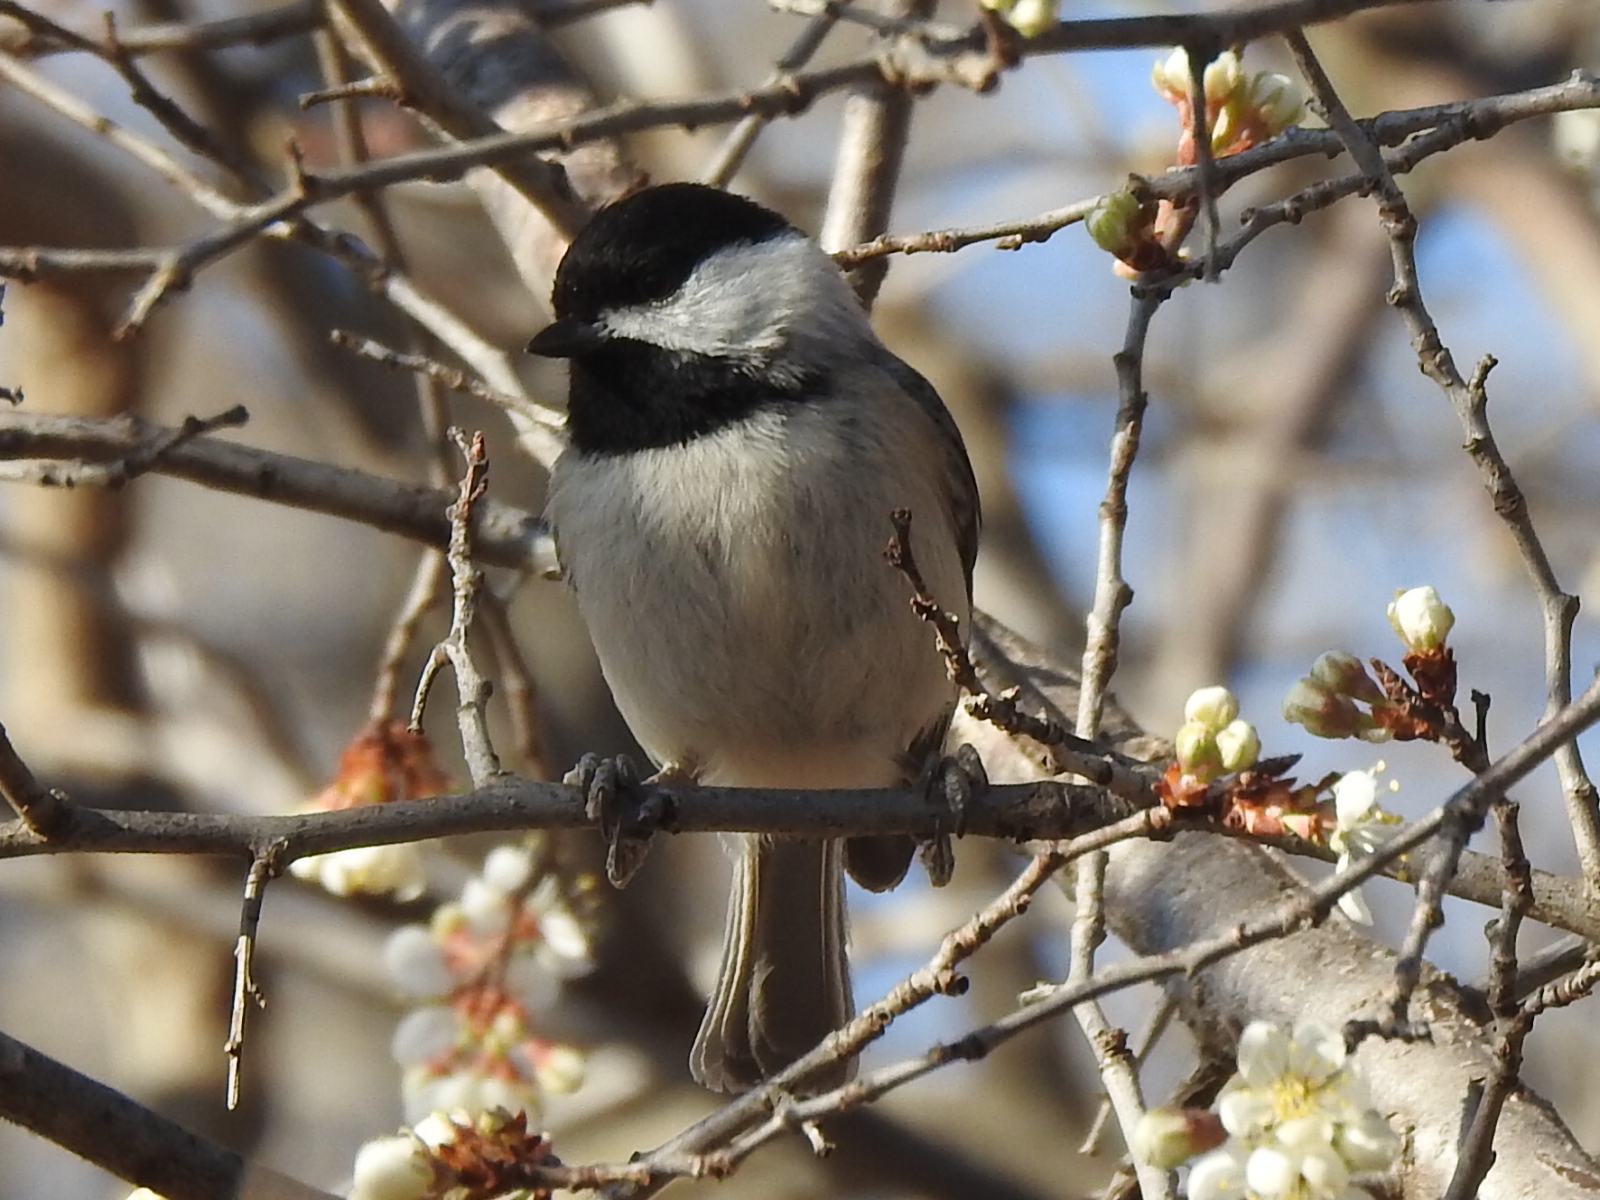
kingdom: Animalia
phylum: Chordata
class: Aves
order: Passeriformes
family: Paridae
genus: Poecile
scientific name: Poecile carolinensis
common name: Carolina chickadee
